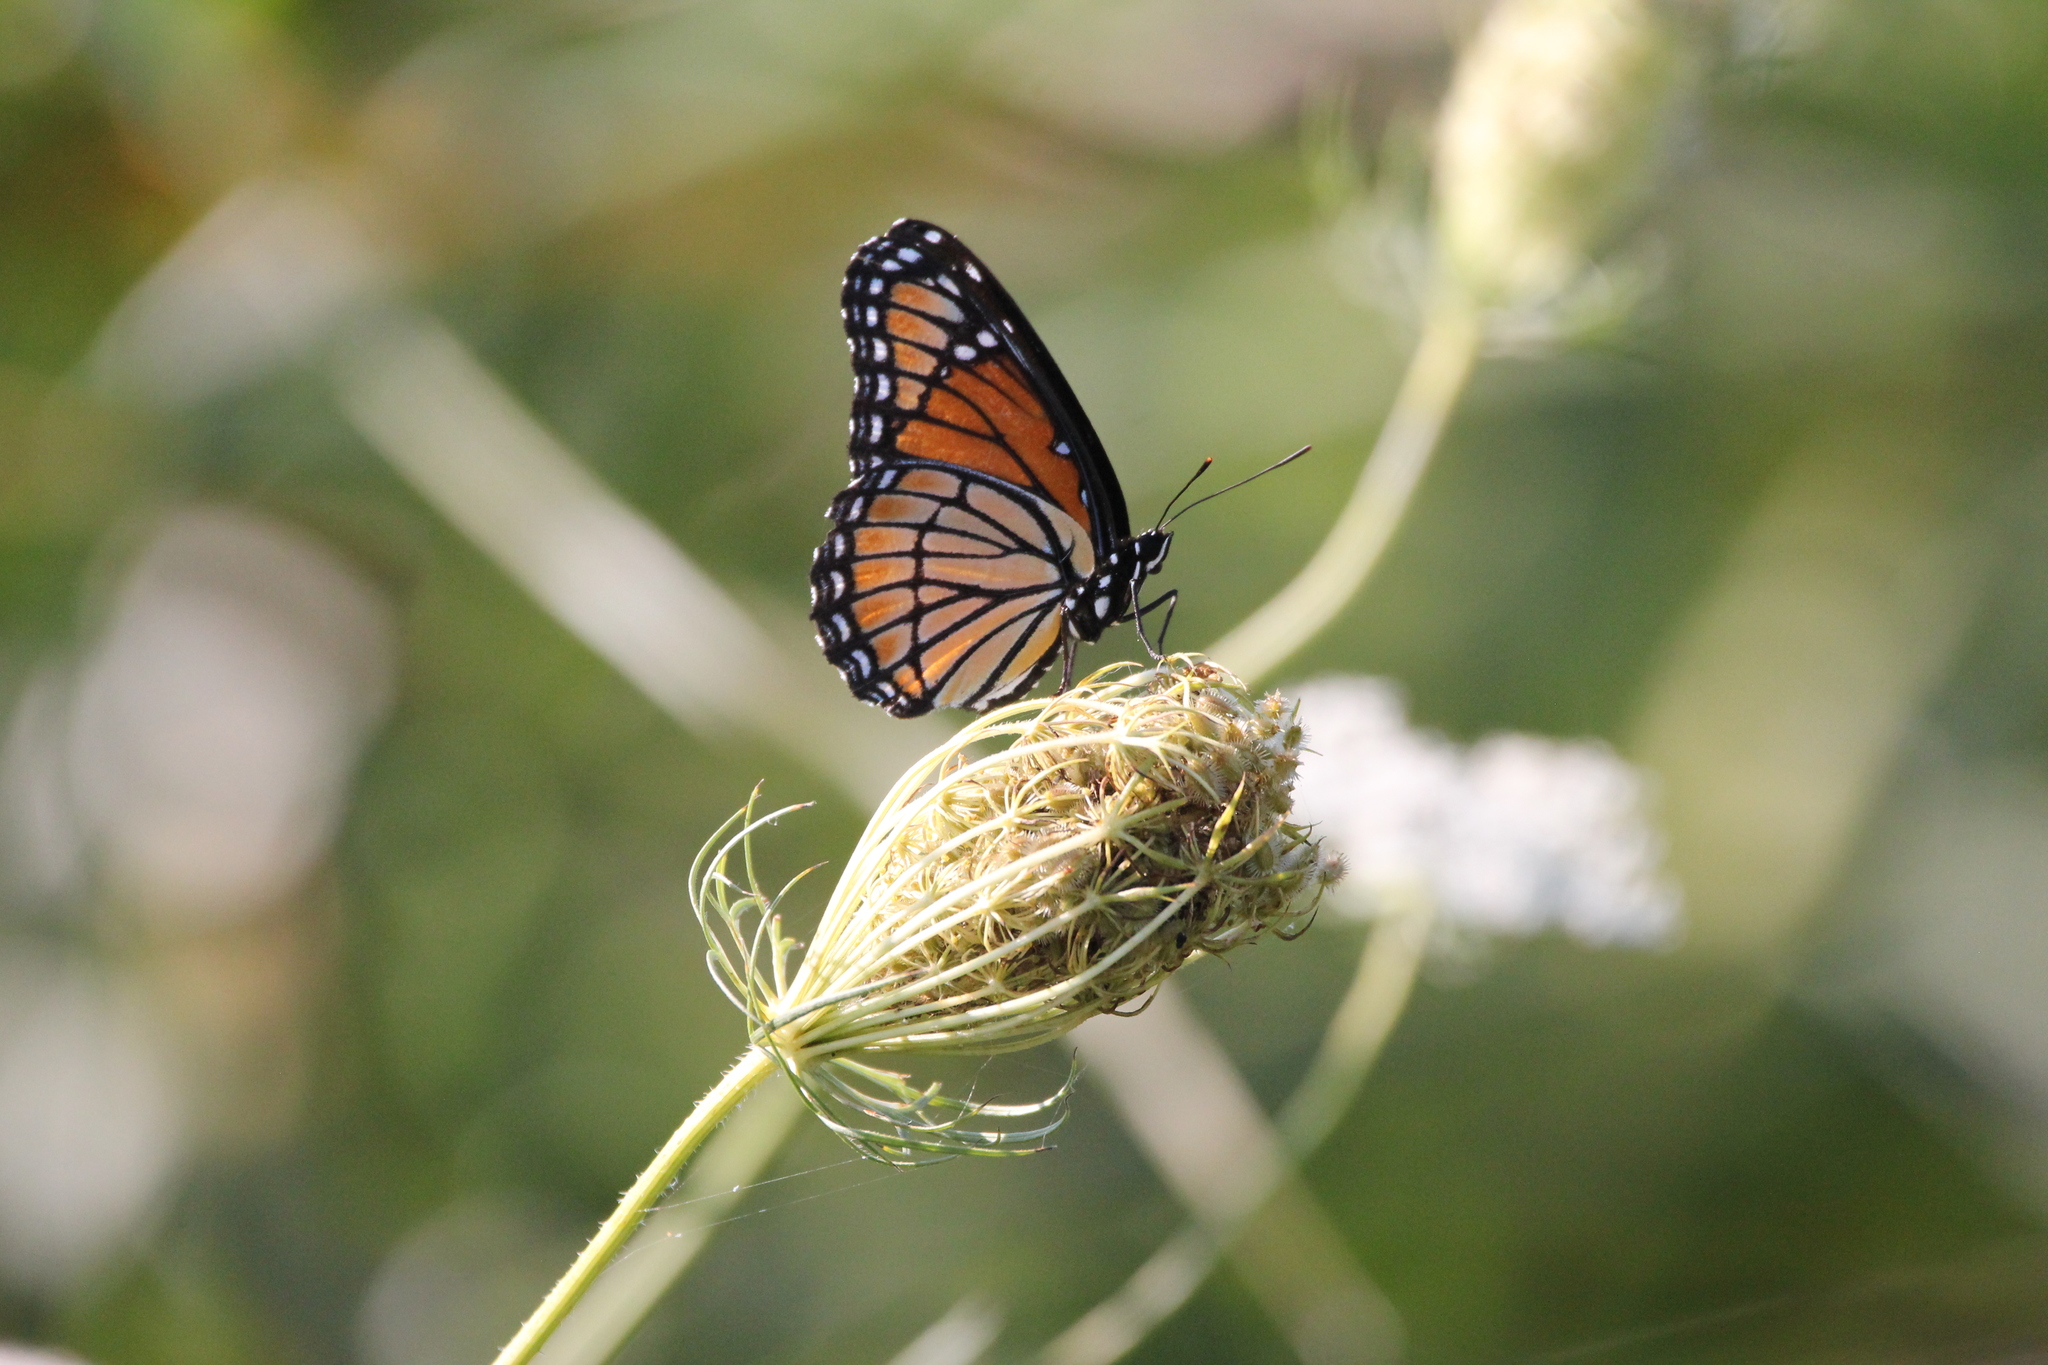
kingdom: Animalia
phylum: Arthropoda
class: Insecta
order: Lepidoptera
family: Nymphalidae
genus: Limenitis
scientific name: Limenitis archippus
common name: Viceroy
